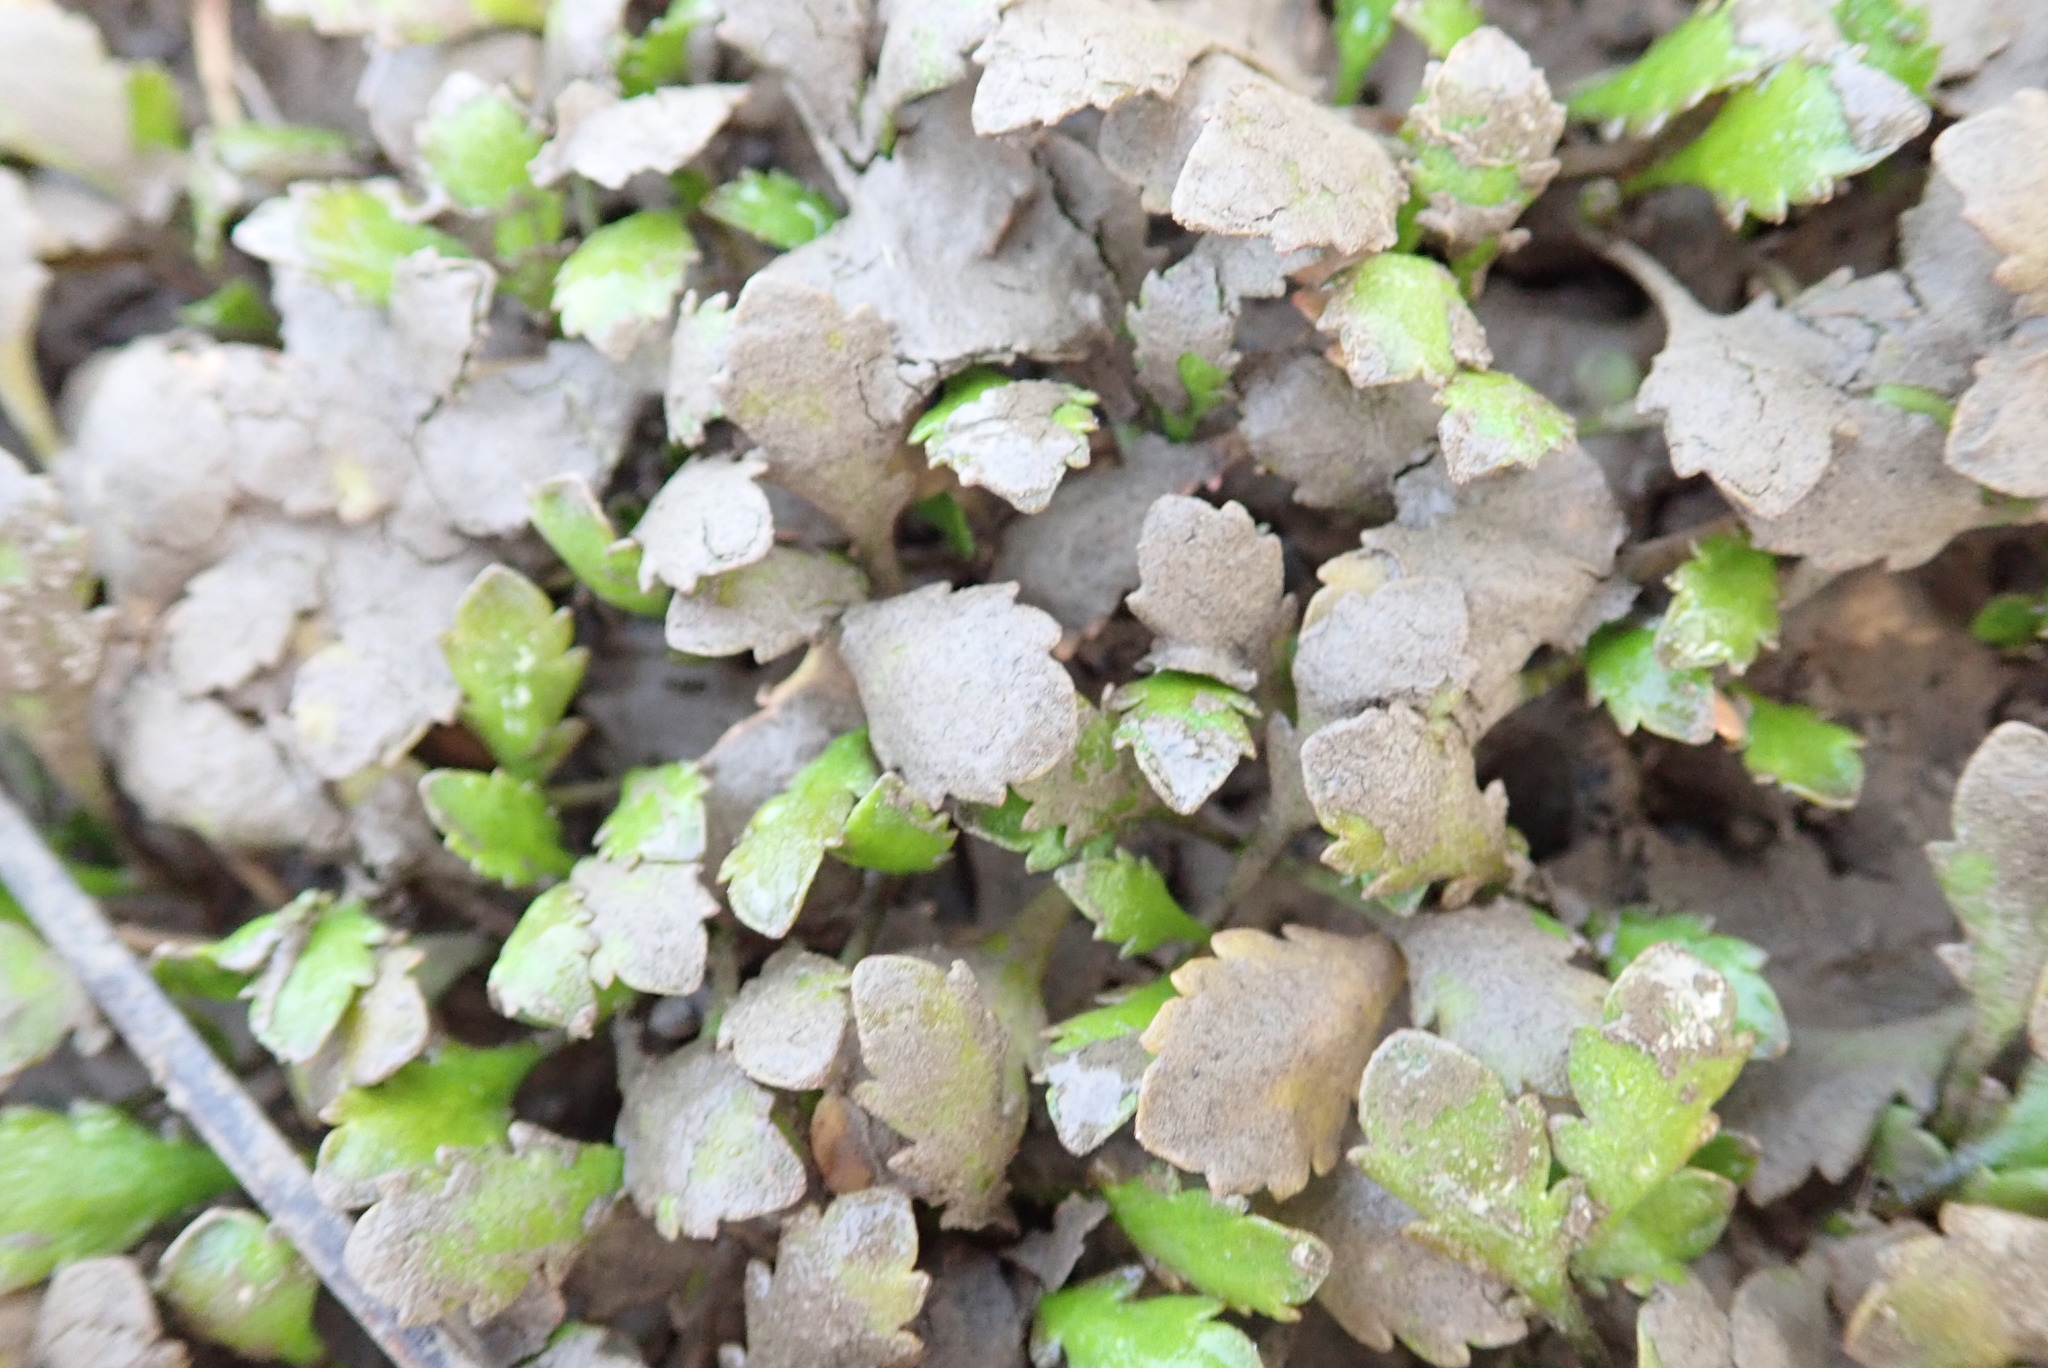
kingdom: Plantae
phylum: Tracheophyta
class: Magnoliopsida
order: Asterales
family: Asteraceae
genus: Leptinella
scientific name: Leptinella dioica
